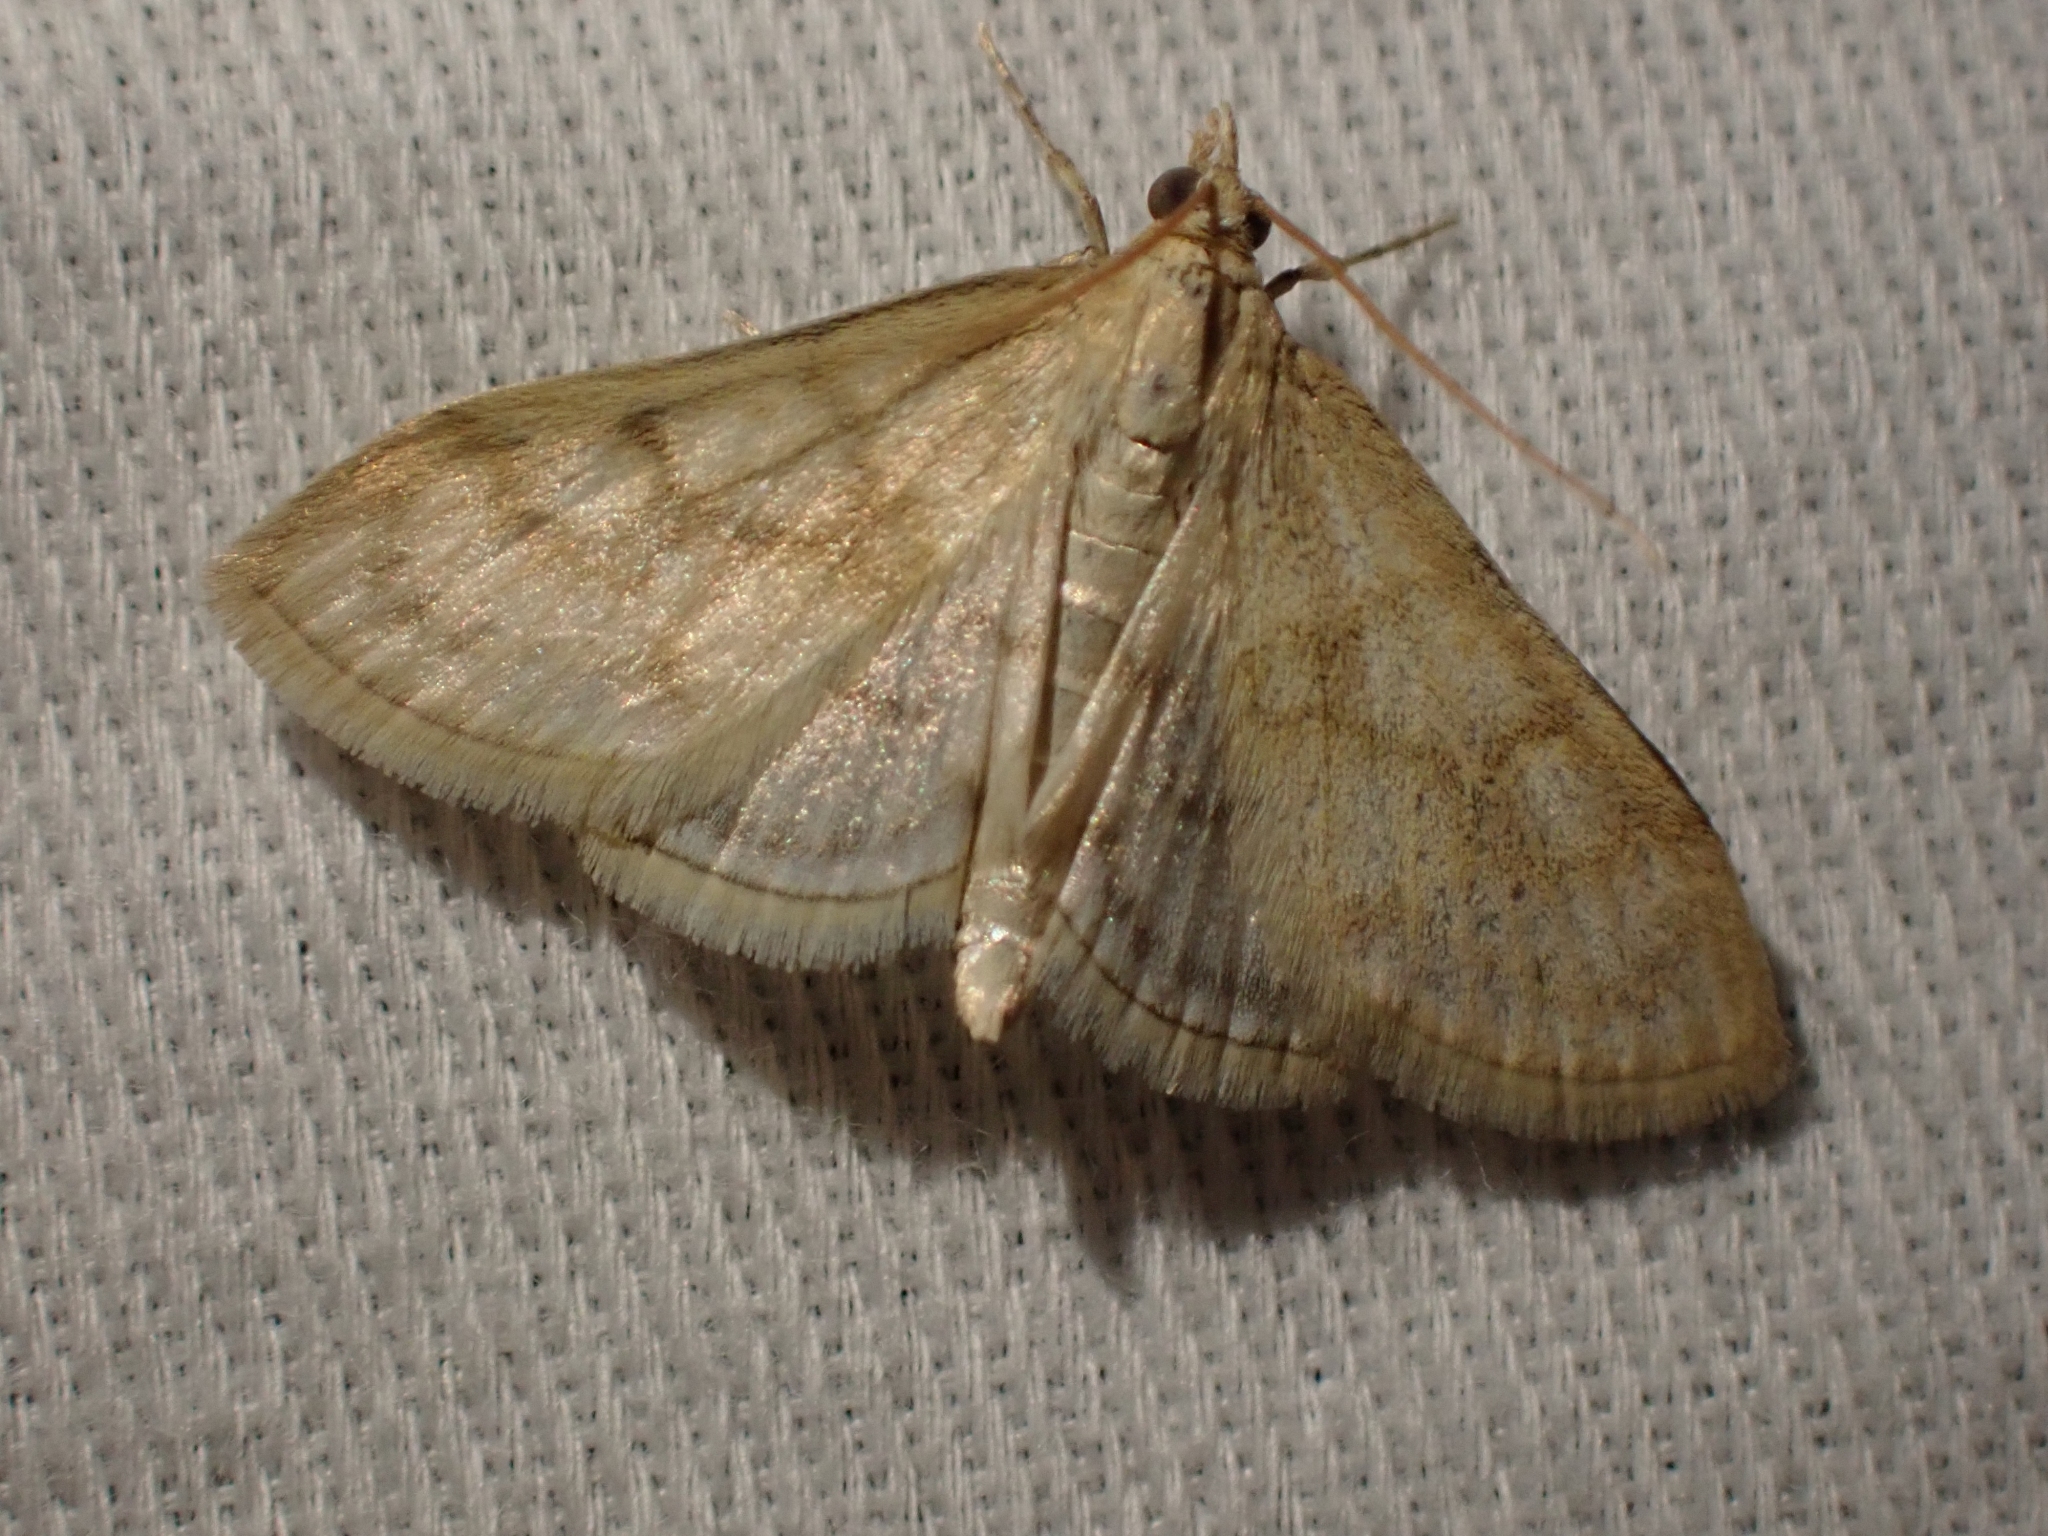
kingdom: Animalia
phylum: Arthropoda
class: Insecta
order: Lepidoptera
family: Crambidae
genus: Paracorsia
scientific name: Paracorsia repandalis
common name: Mullein moth
